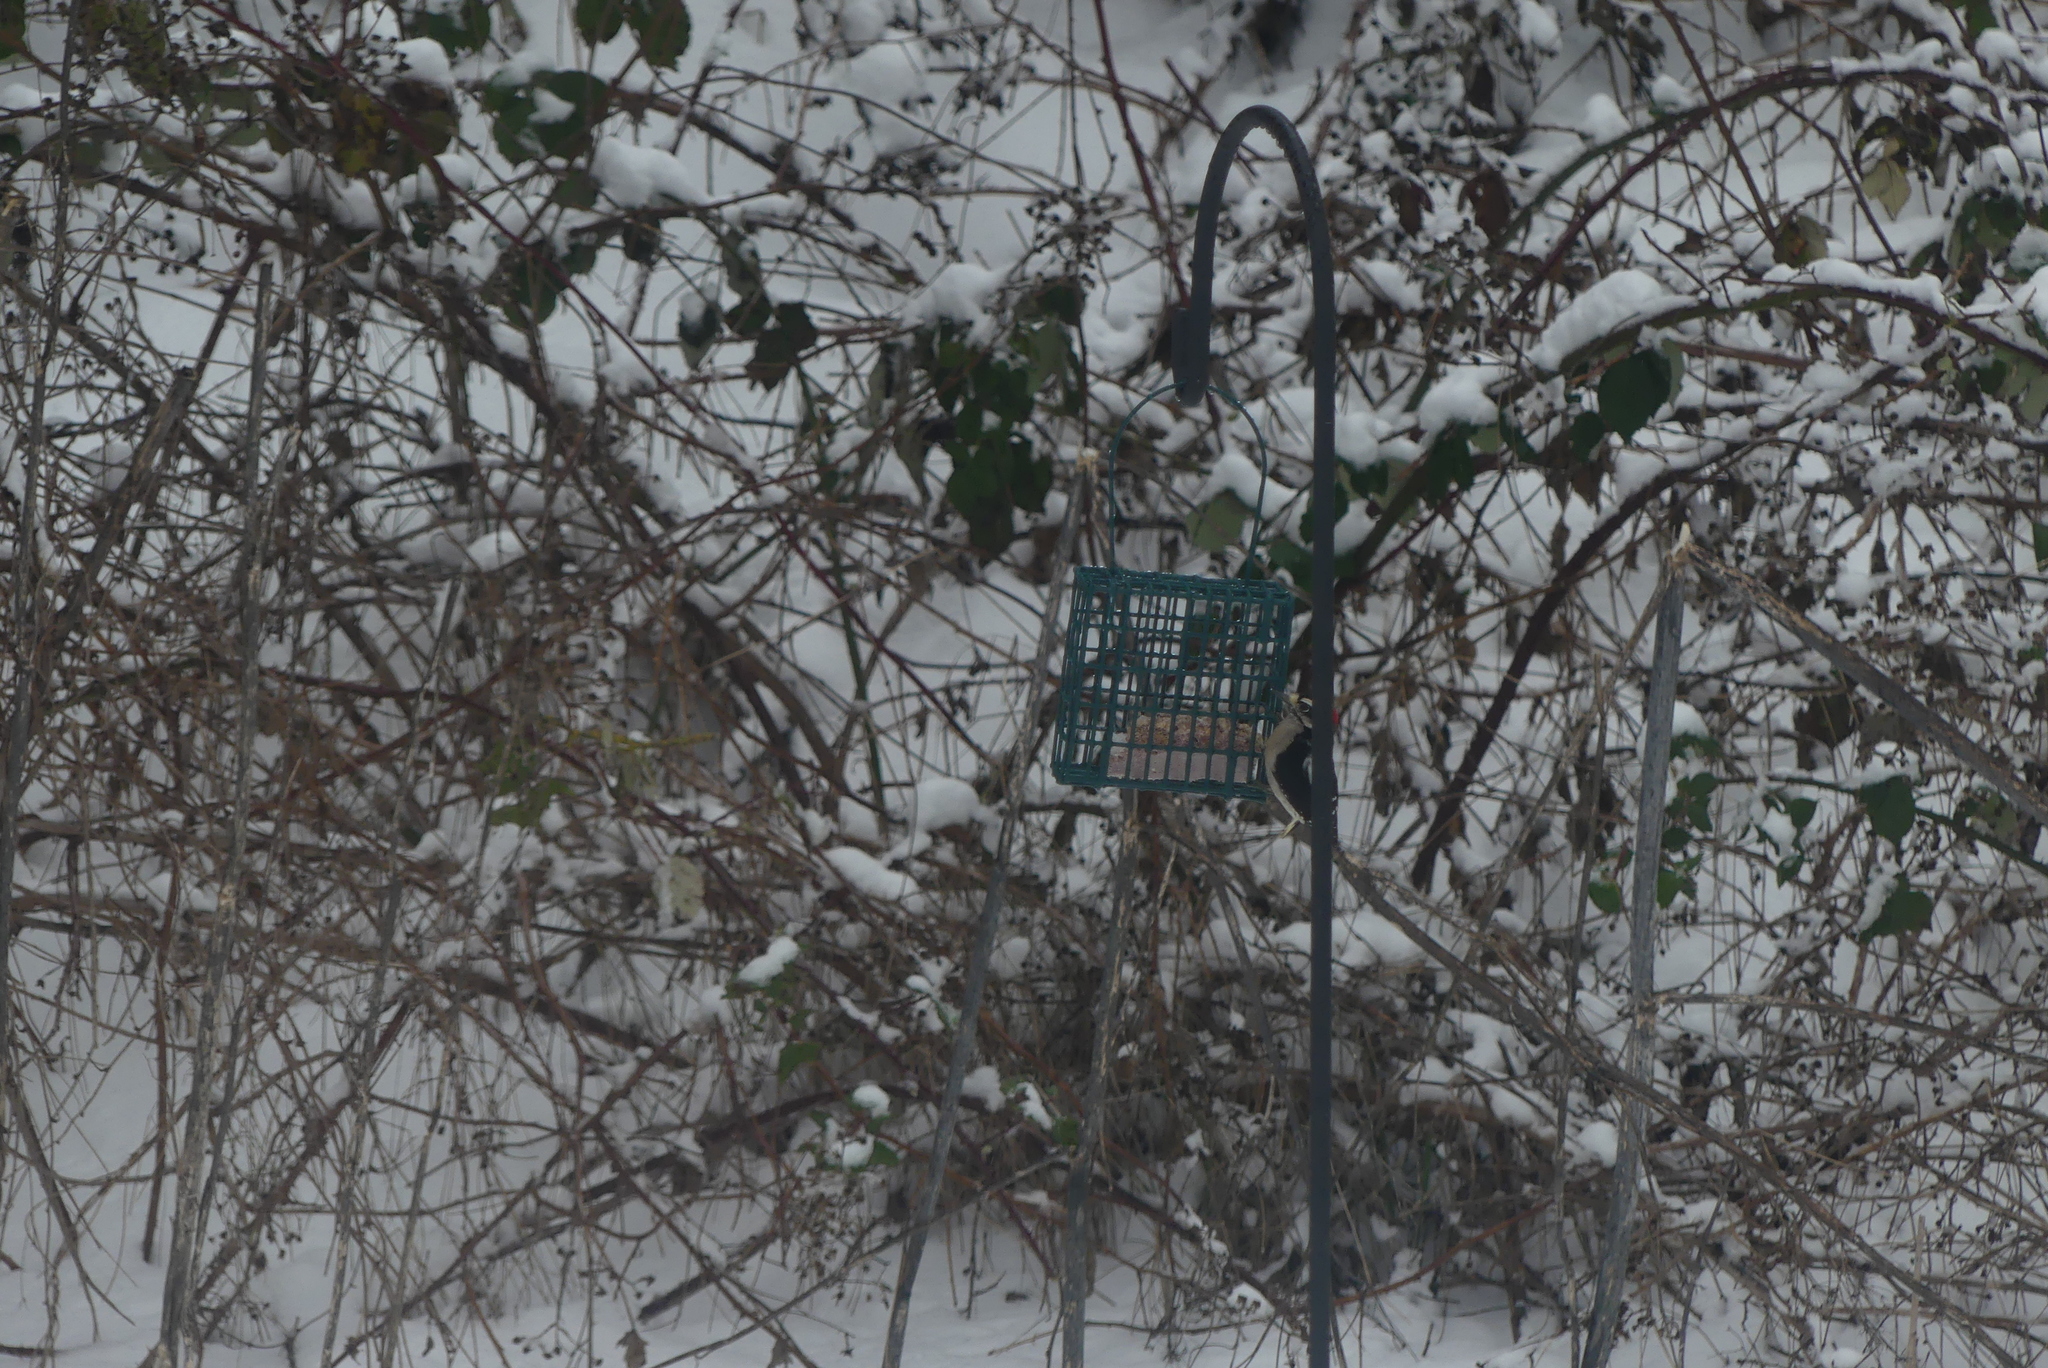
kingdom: Animalia
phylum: Chordata
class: Aves
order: Piciformes
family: Picidae
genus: Dryobates
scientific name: Dryobates pubescens
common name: Downy woodpecker
